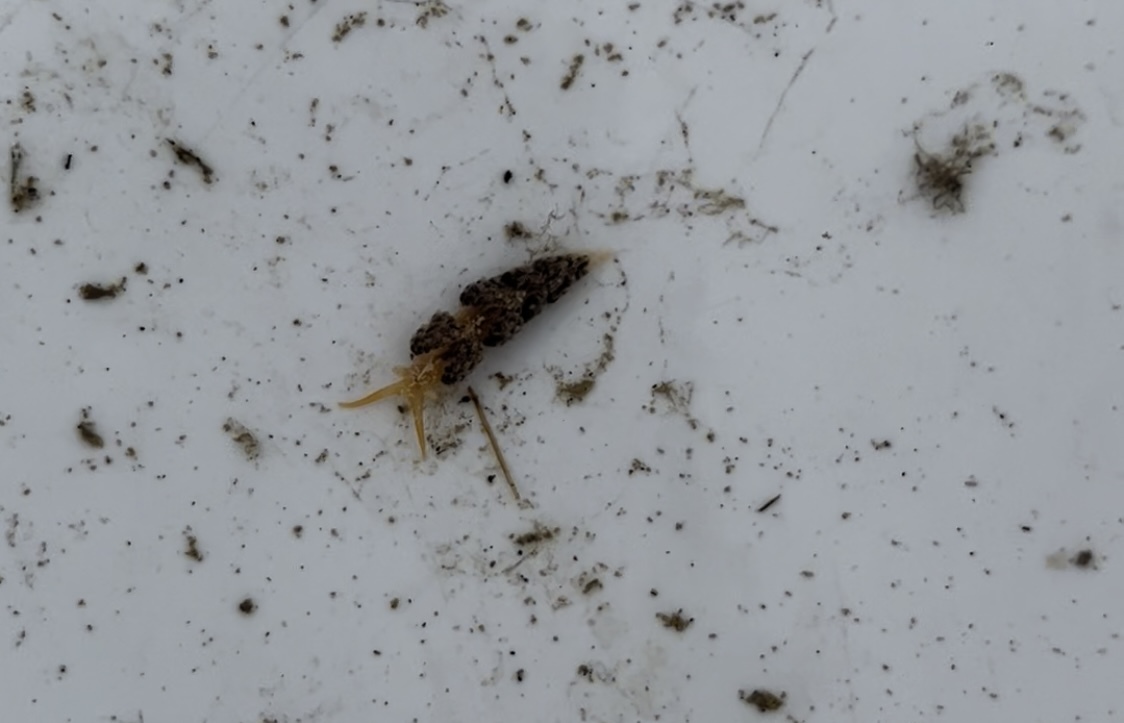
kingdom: Animalia
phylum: Mollusca
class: Gastropoda
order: Nudibranchia
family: Facelinidae
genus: Austraeolis
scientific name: Austraeolis ornata
